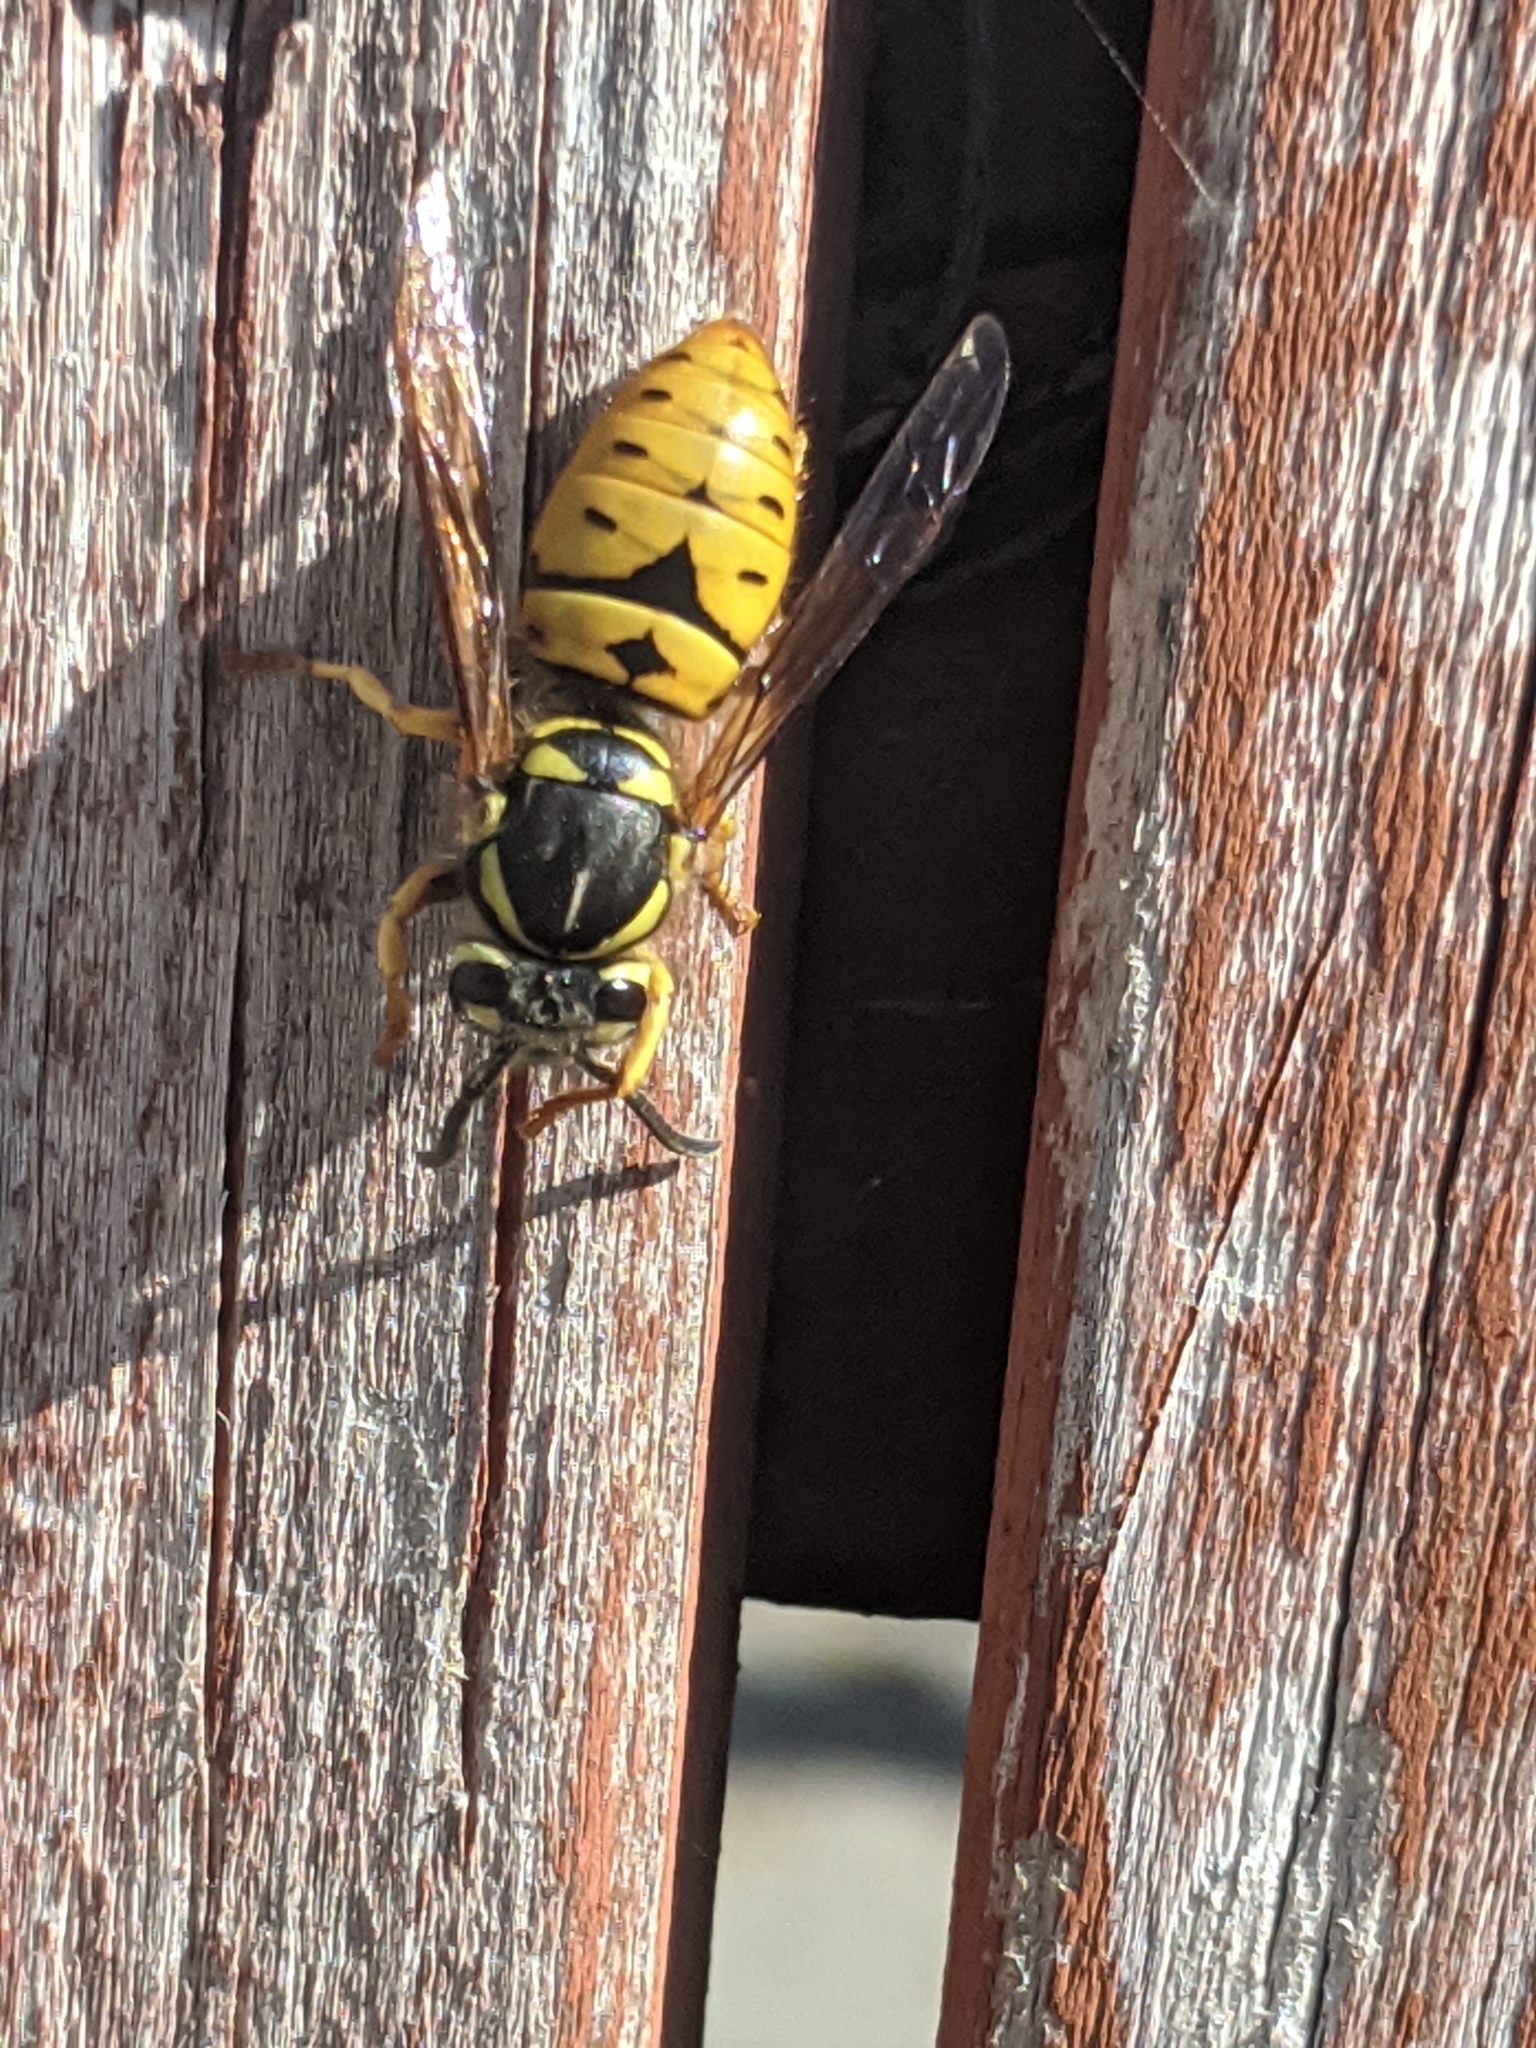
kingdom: Animalia
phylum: Arthropoda
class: Insecta
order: Hymenoptera
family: Vespidae
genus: Vespula
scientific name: Vespula maculifrons
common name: Eastern yellowjacket
